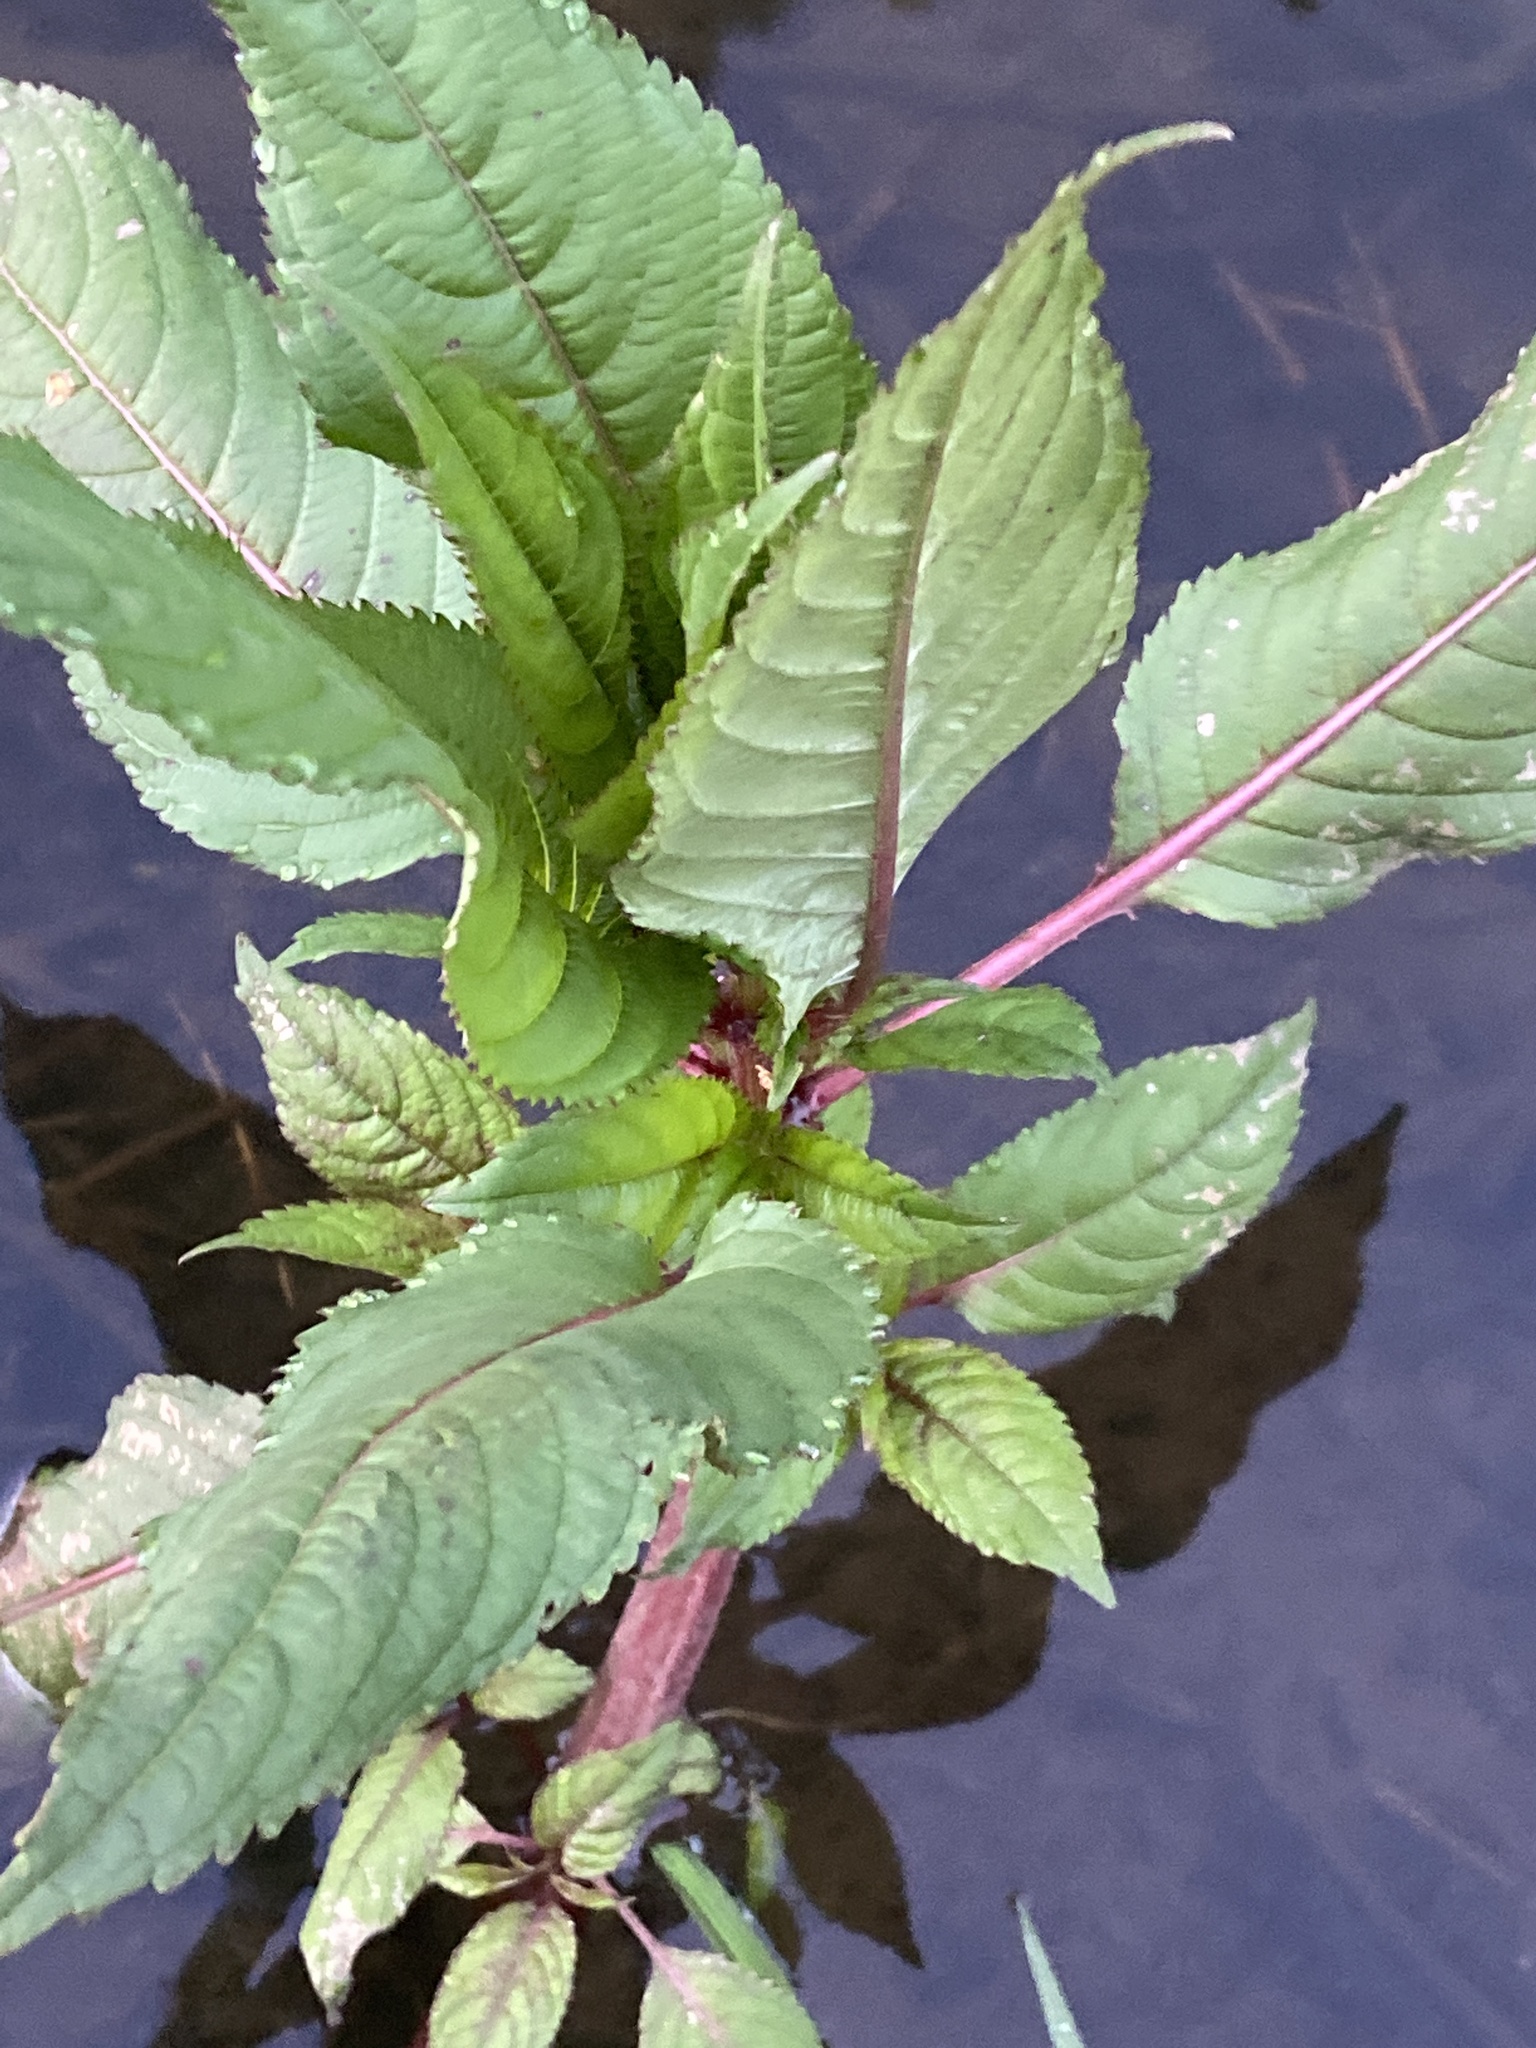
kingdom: Plantae
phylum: Tracheophyta
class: Magnoliopsida
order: Ericales
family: Balsaminaceae
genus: Impatiens
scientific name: Impatiens glandulifera
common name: Himalayan balsam
